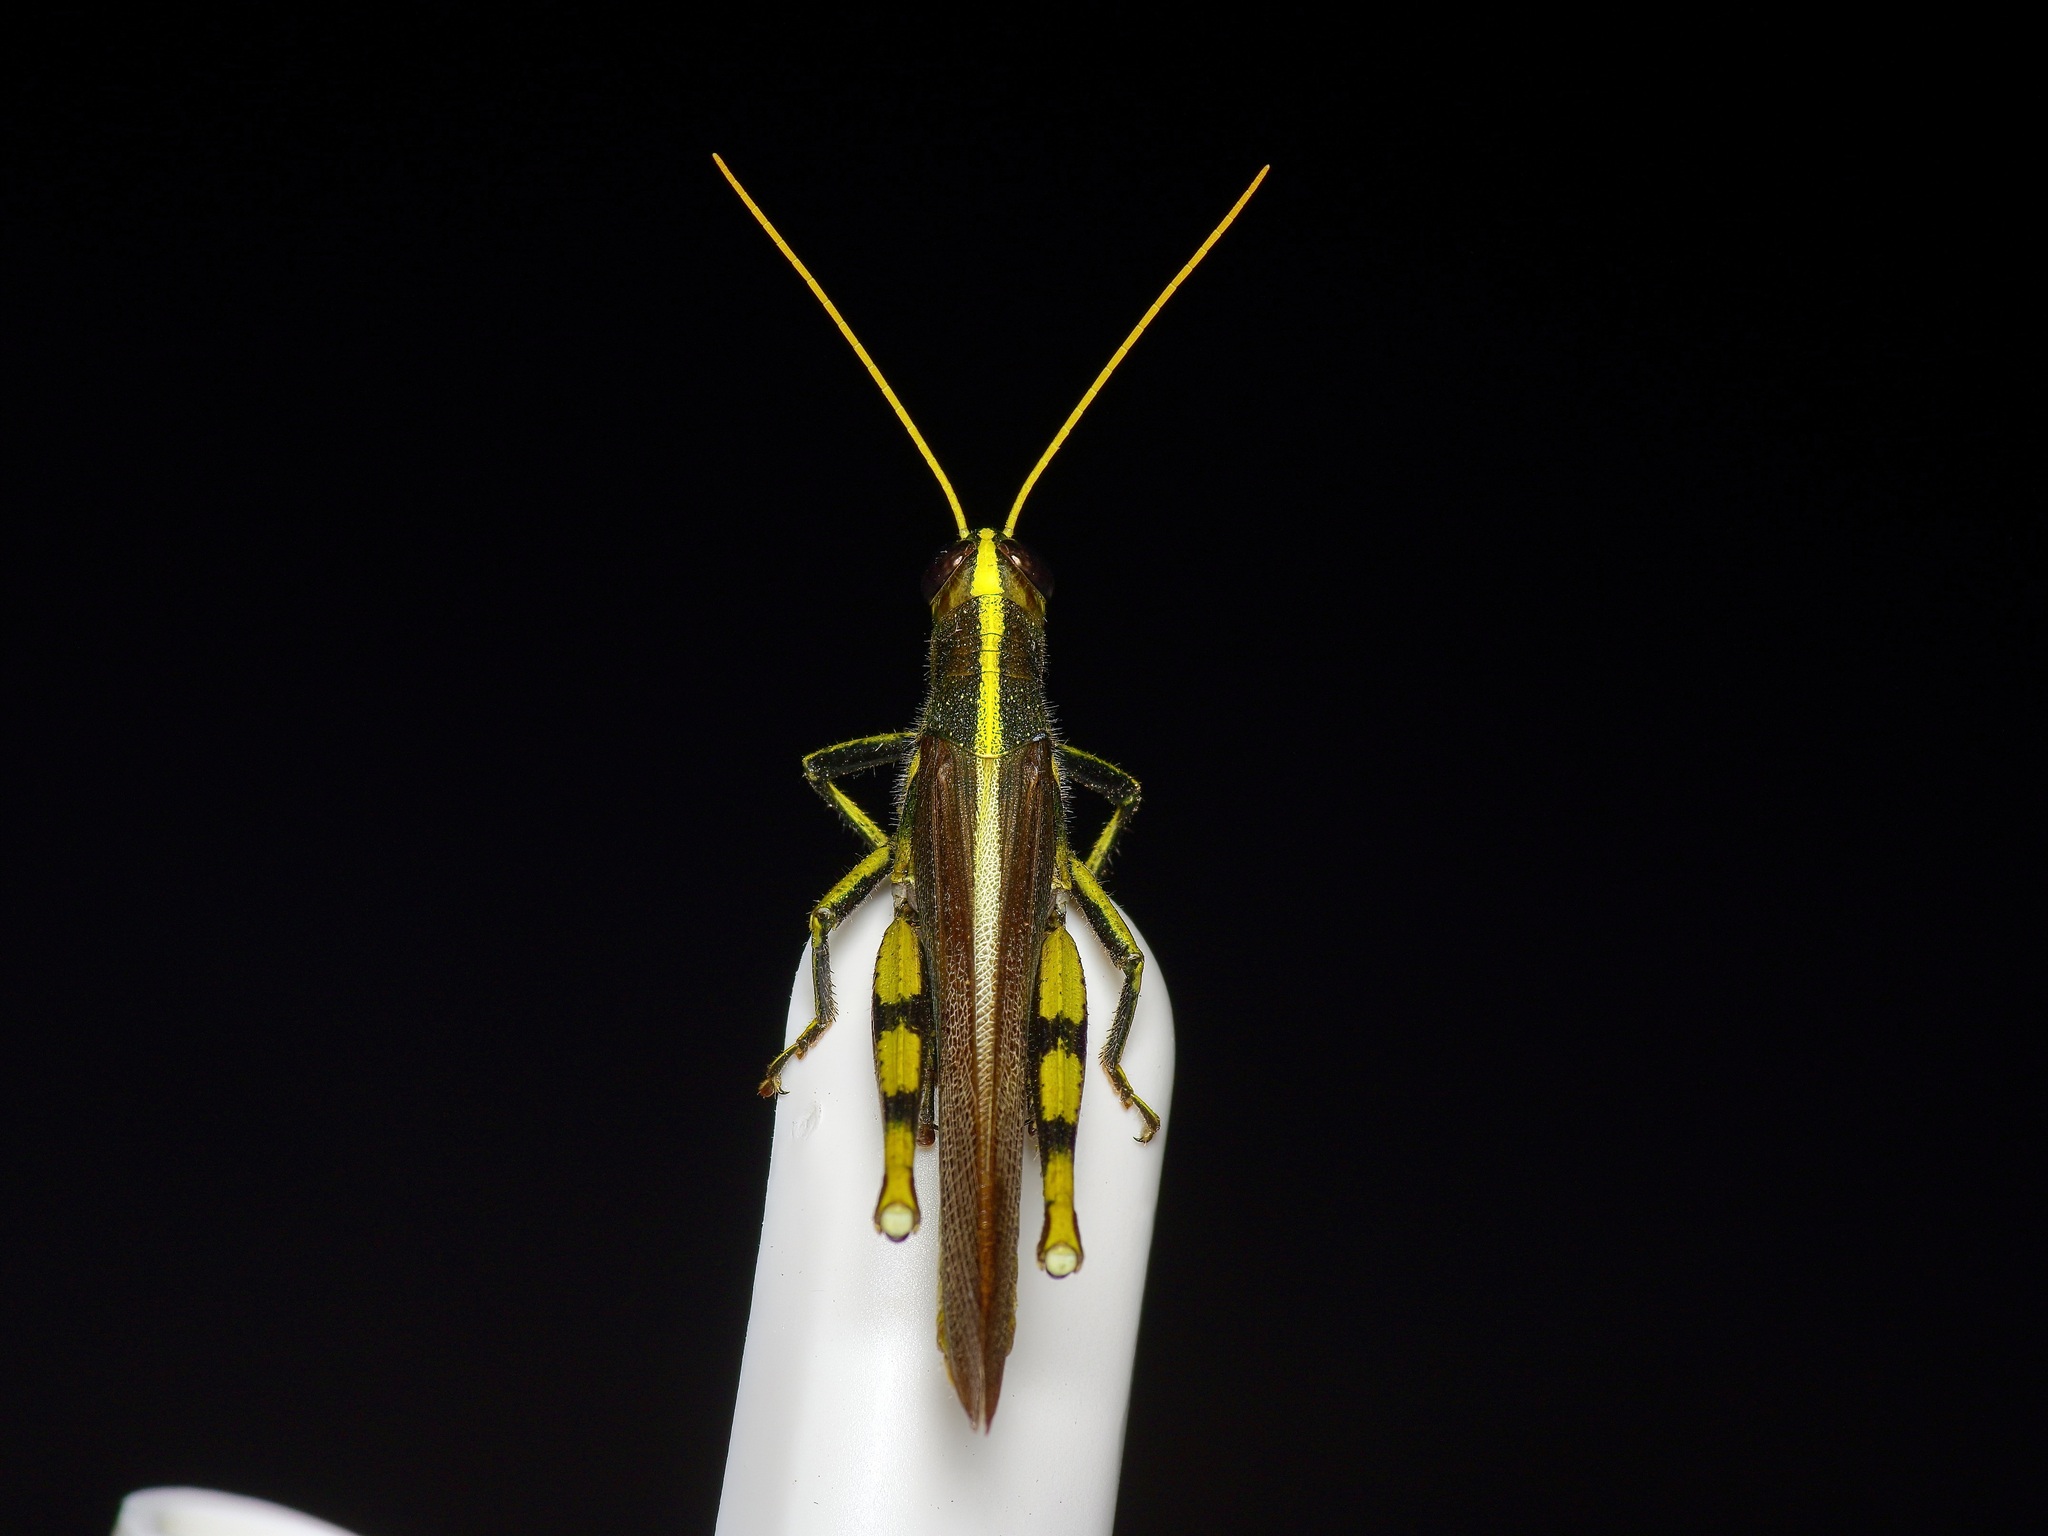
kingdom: Animalia
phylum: Arthropoda
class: Insecta
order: Orthoptera
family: Acrididae
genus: Schistocerca
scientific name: Schistocerca obscura
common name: Obscure bird grasshopper
